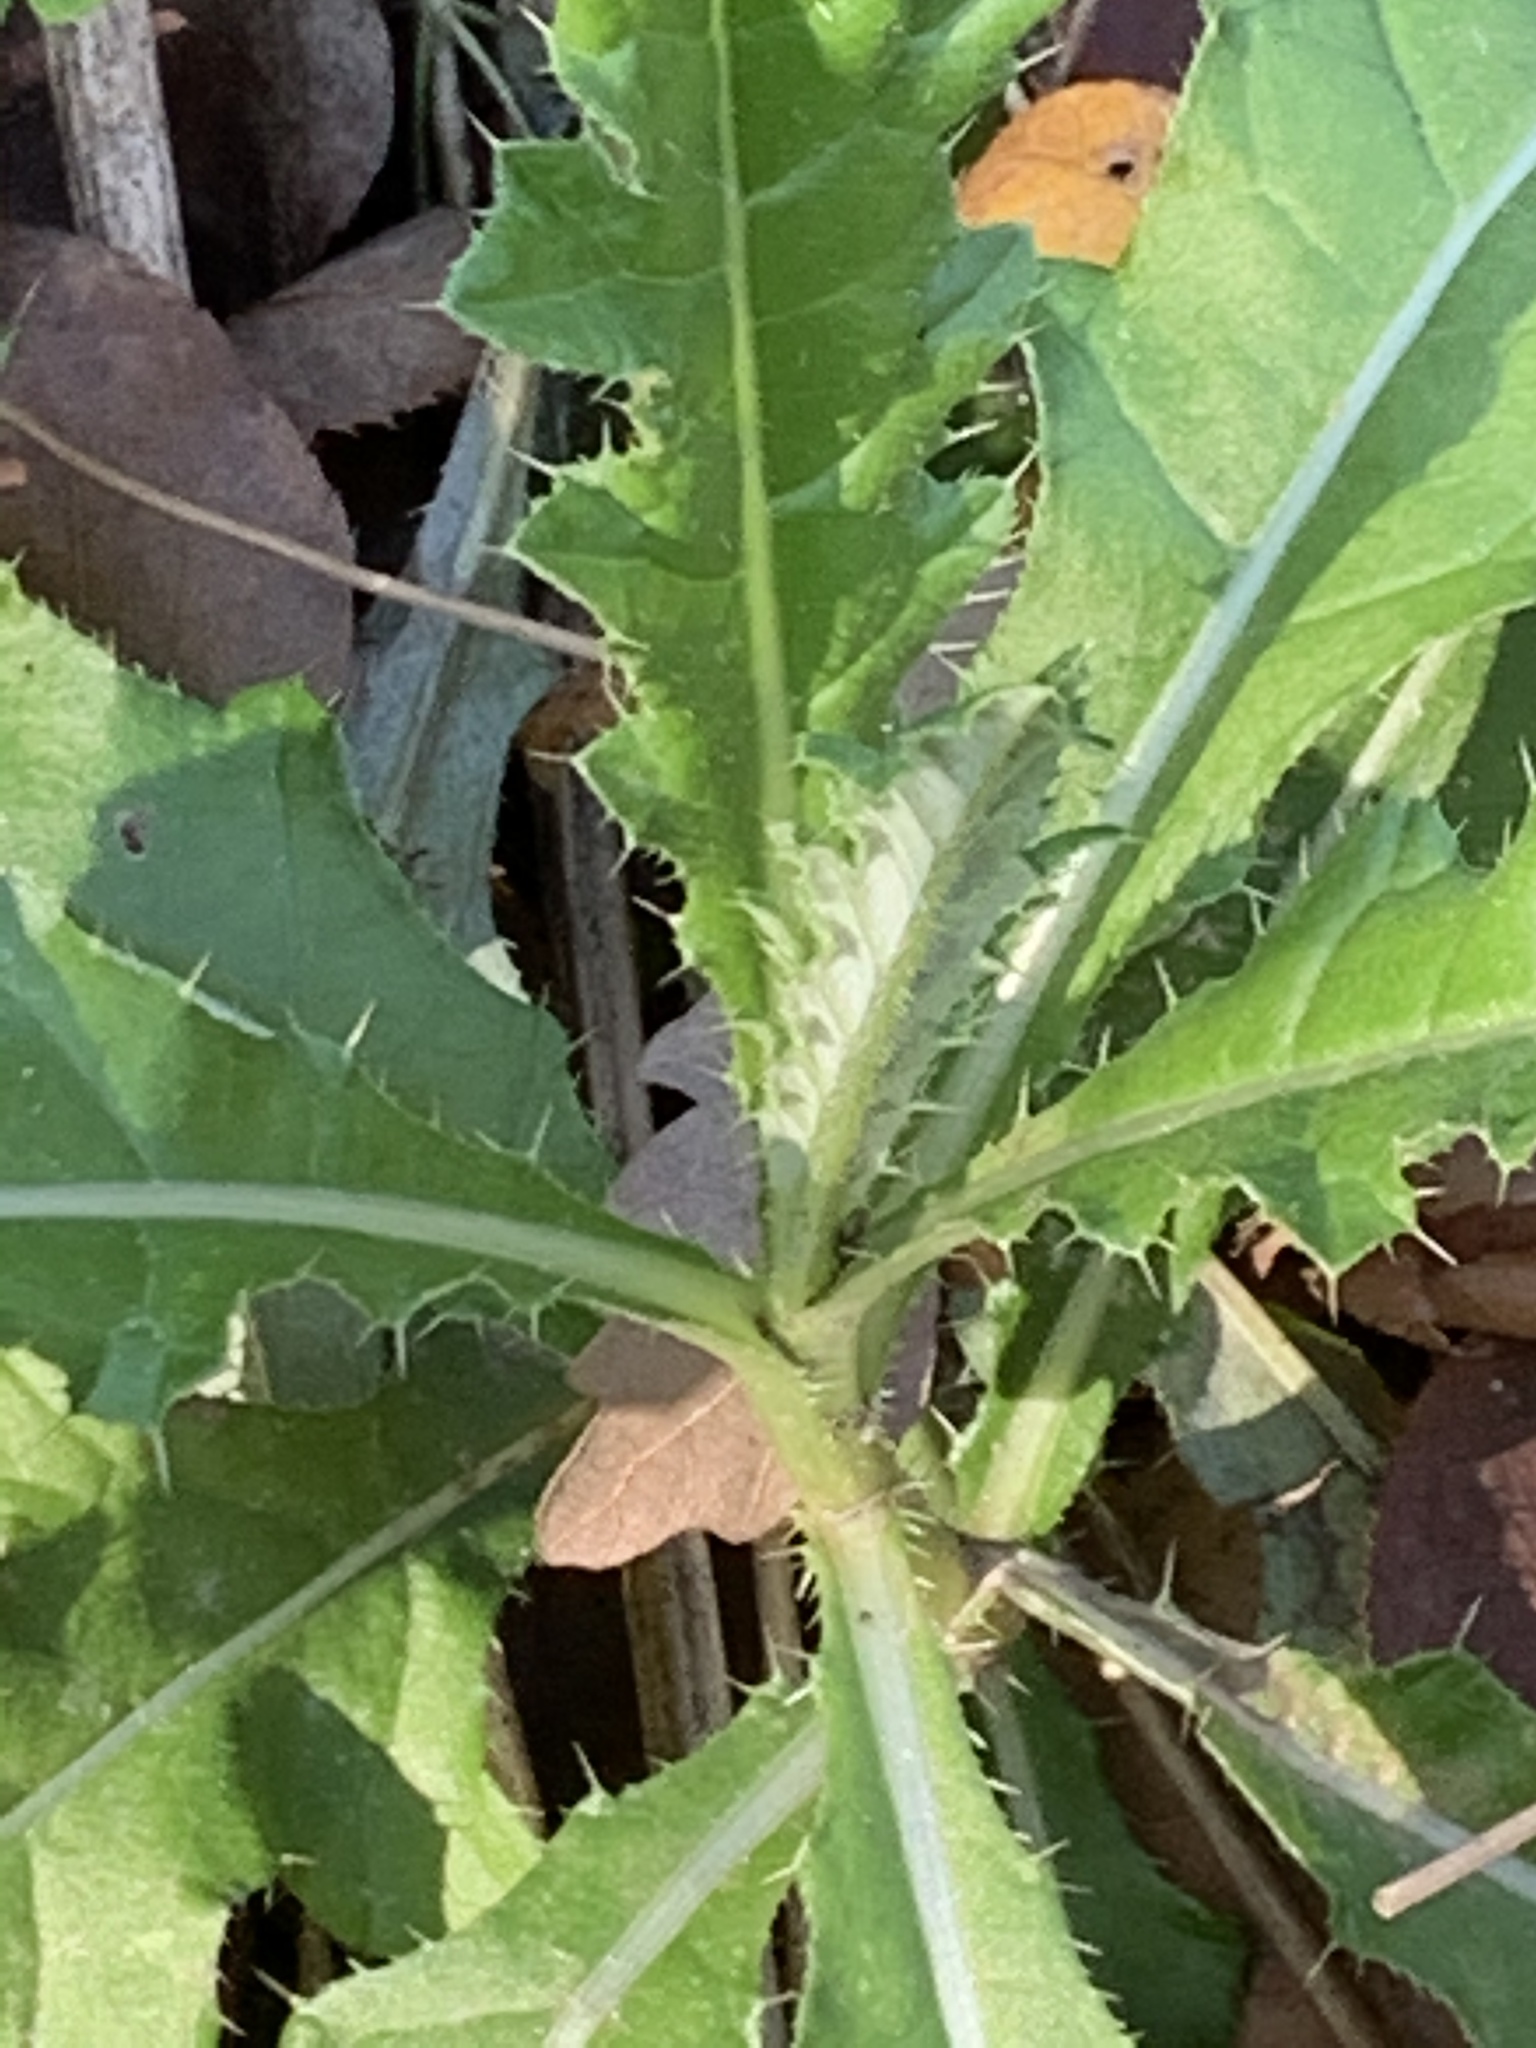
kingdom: Plantae
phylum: Tracheophyta
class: Magnoliopsida
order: Asterales
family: Asteraceae
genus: Cirsium
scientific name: Cirsium arvense
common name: Creeping thistle
